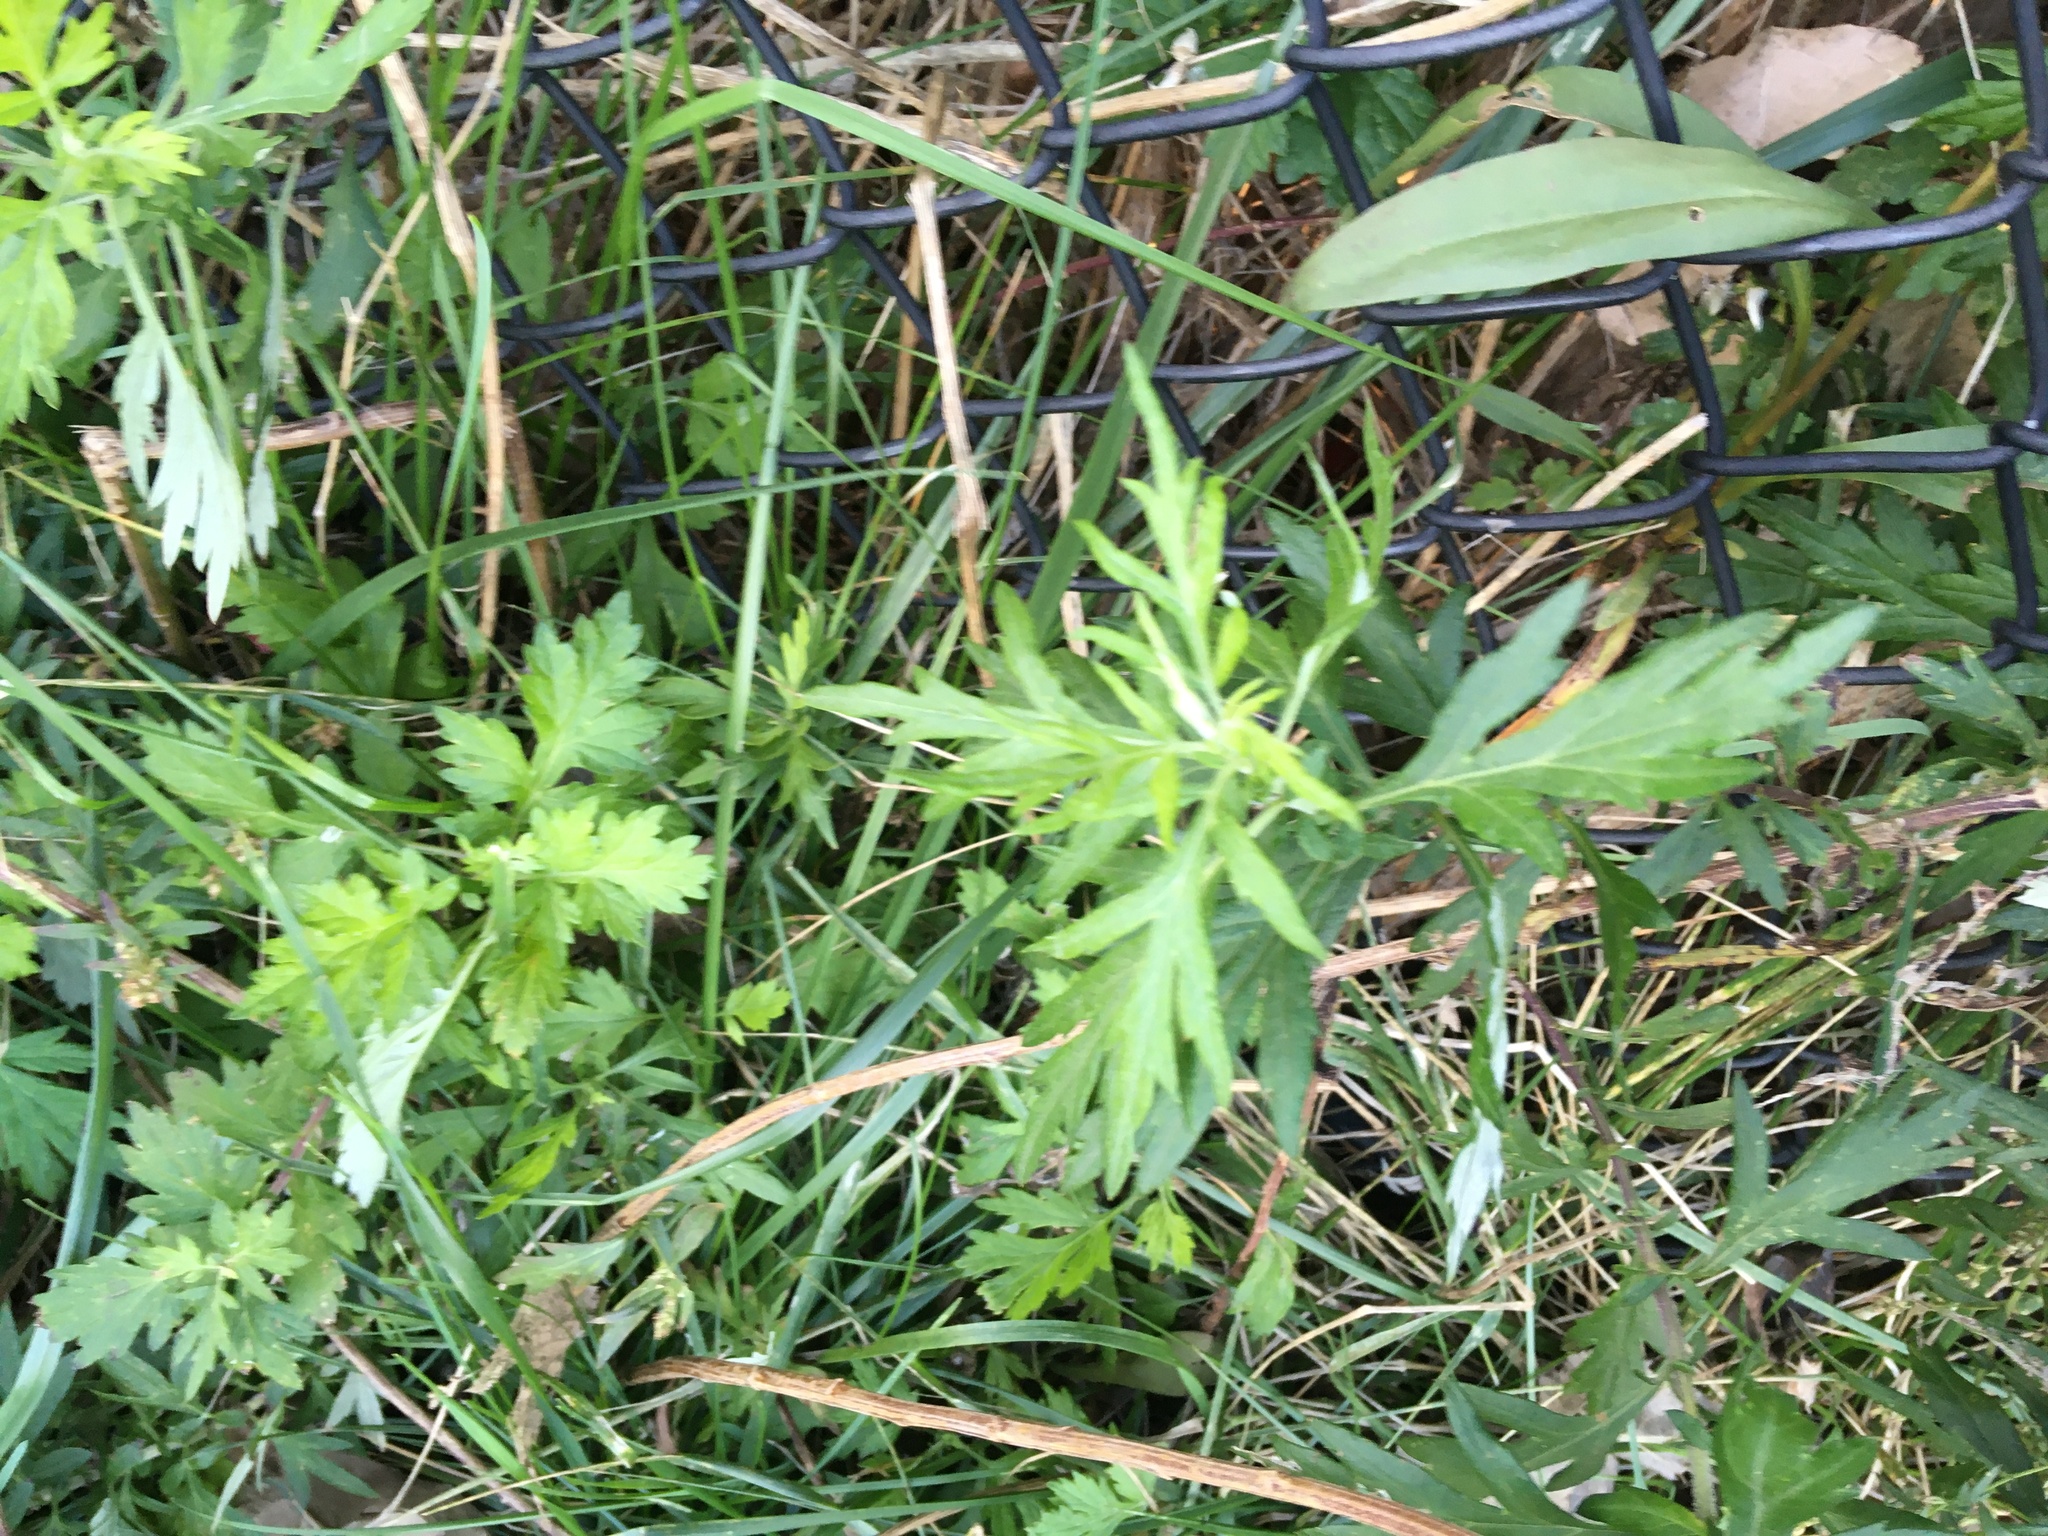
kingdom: Plantae
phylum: Tracheophyta
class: Magnoliopsida
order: Asterales
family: Asteraceae
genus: Artemisia
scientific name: Artemisia vulgaris
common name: Mugwort
